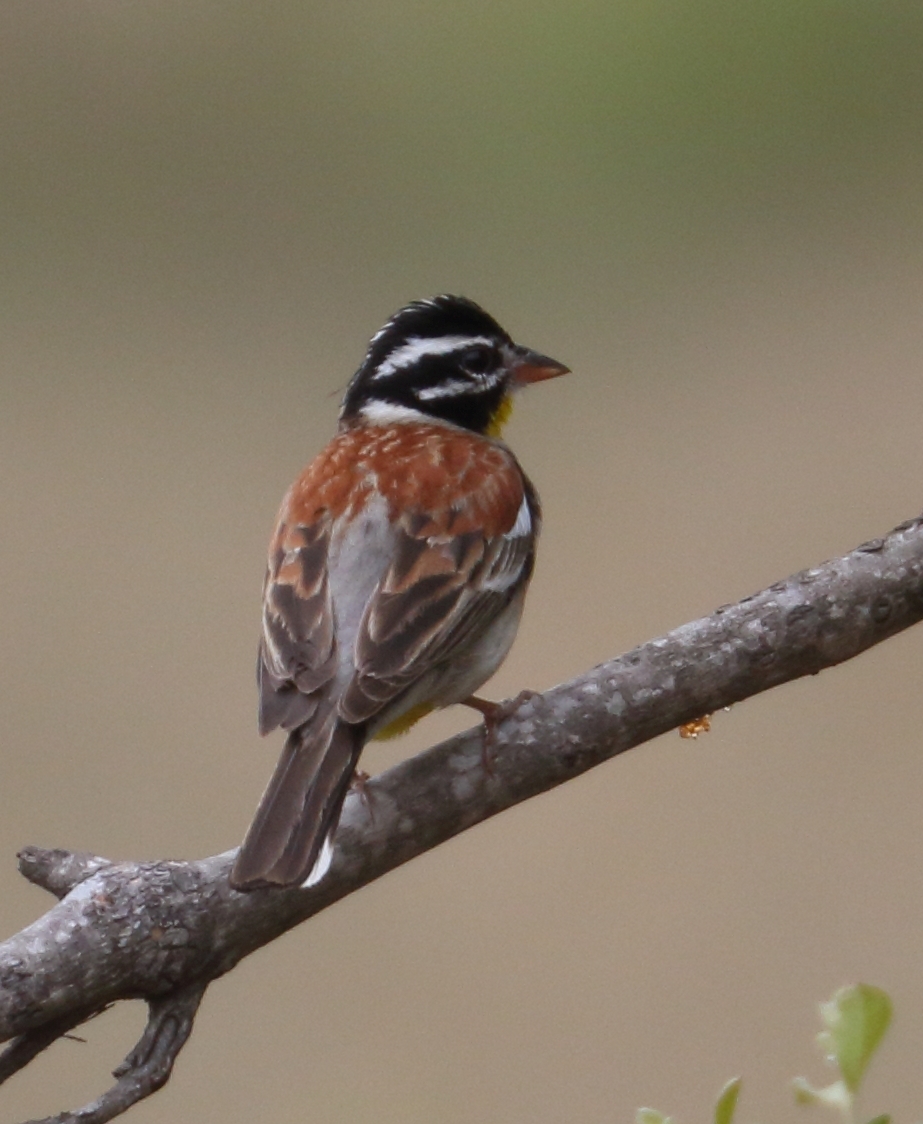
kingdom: Animalia
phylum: Chordata
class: Aves
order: Passeriformes
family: Emberizidae
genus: Emberiza
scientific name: Emberiza flaviventris
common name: Golden-breasted bunting
